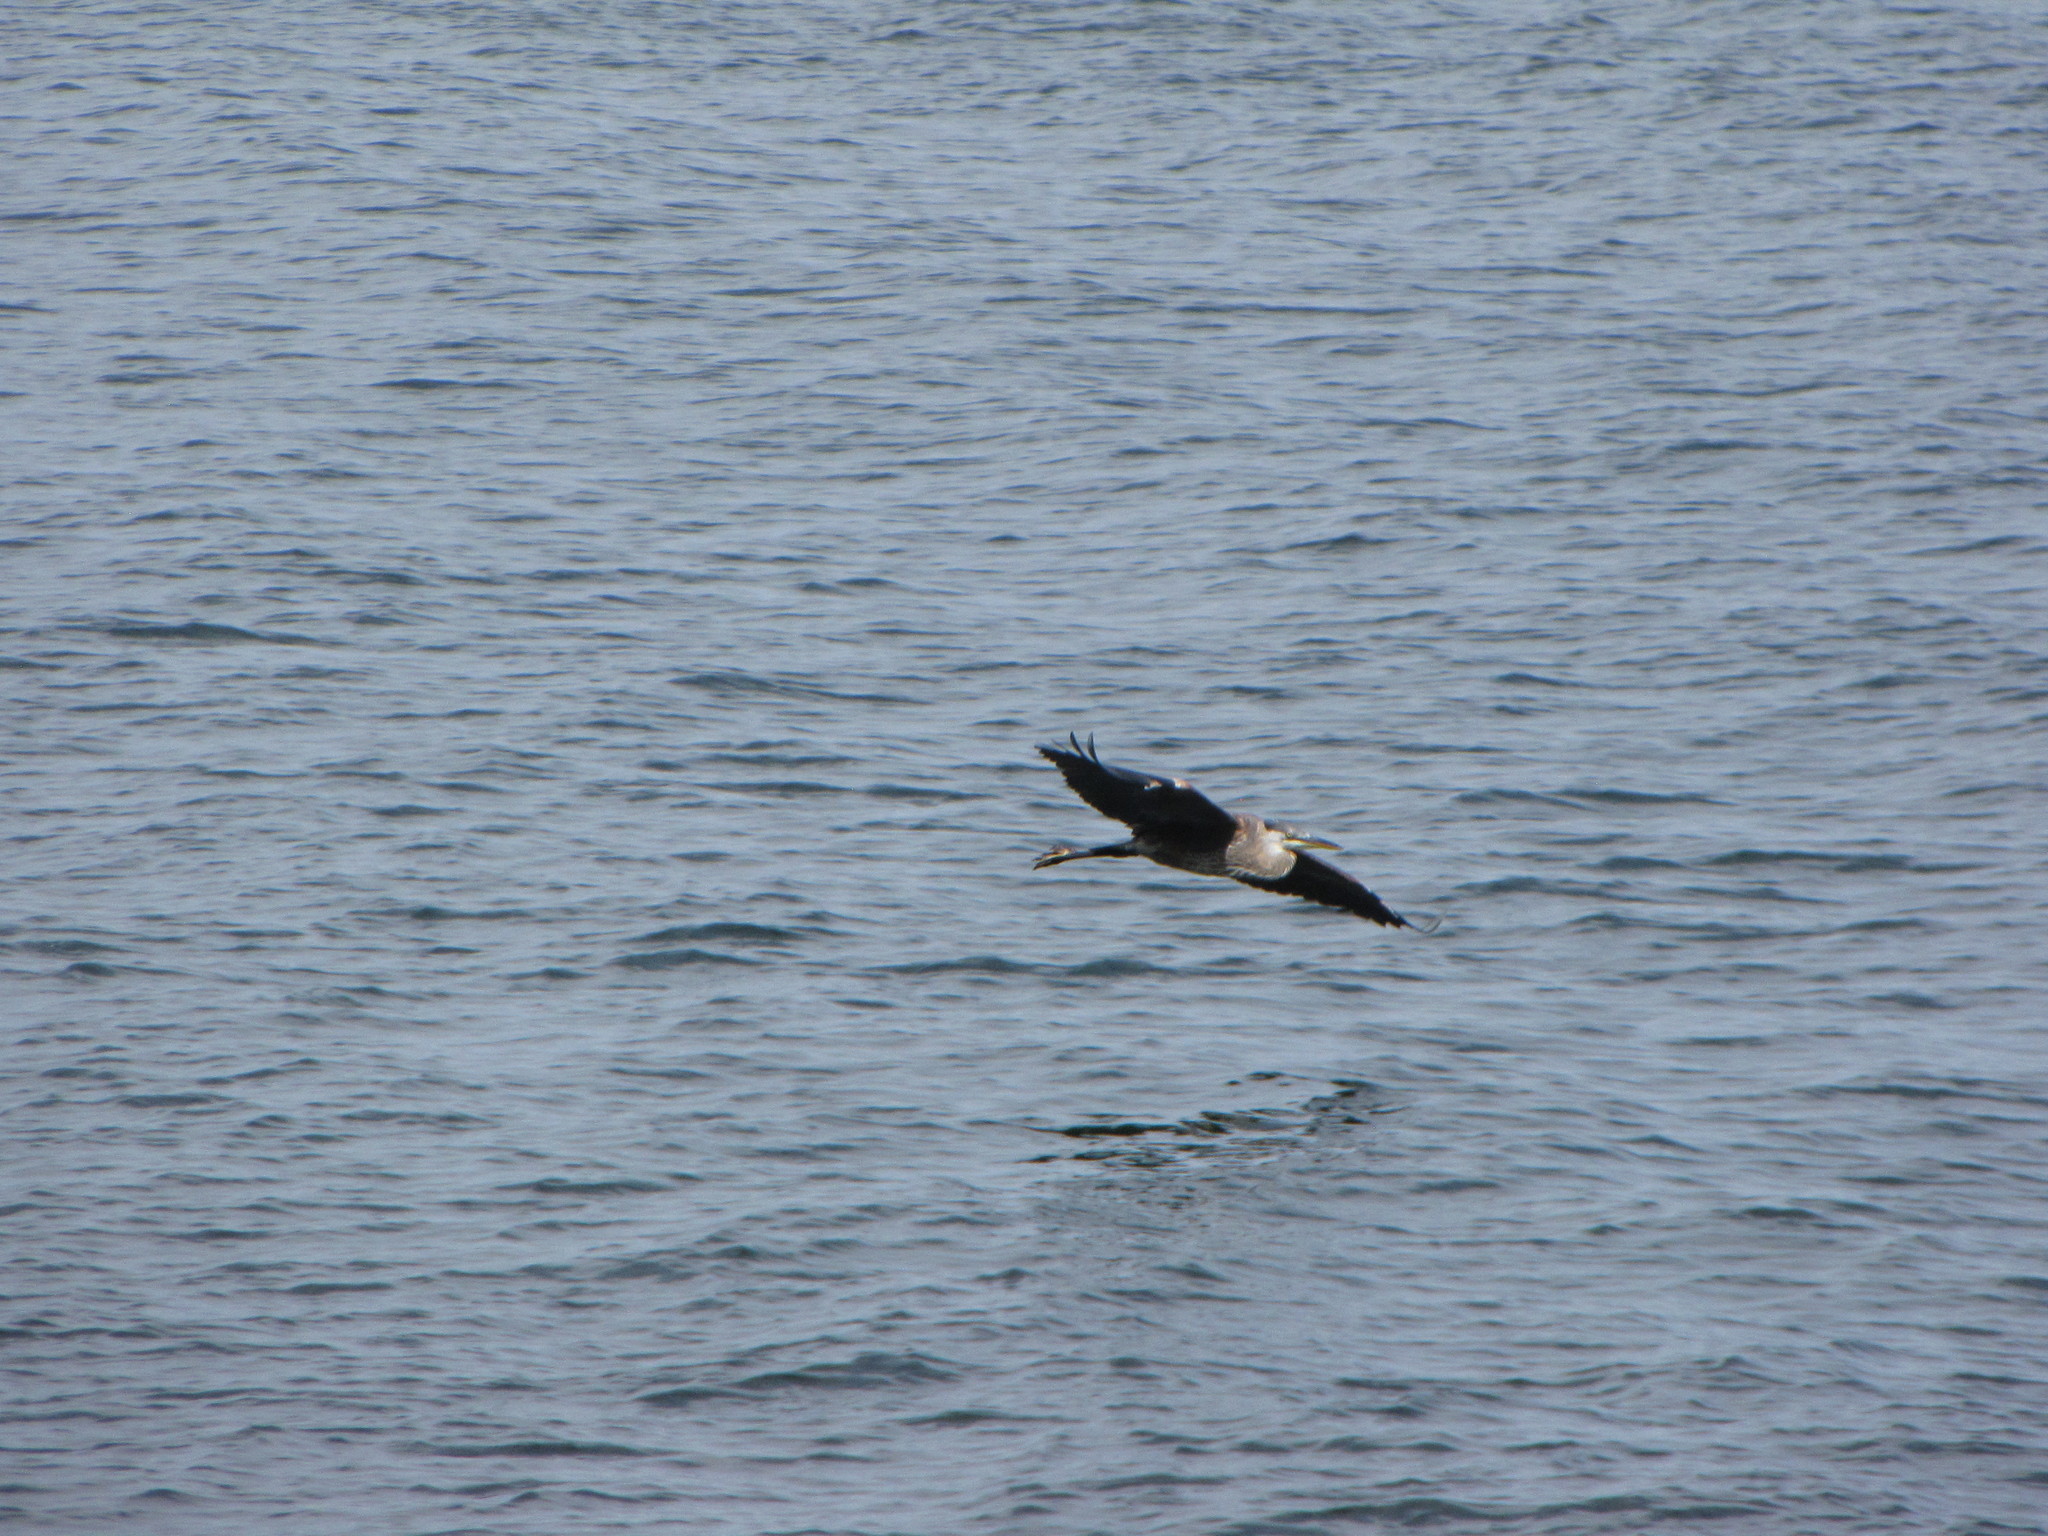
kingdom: Animalia
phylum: Chordata
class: Aves
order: Pelecaniformes
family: Ardeidae
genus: Ardea
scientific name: Ardea herodias
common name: Great blue heron
